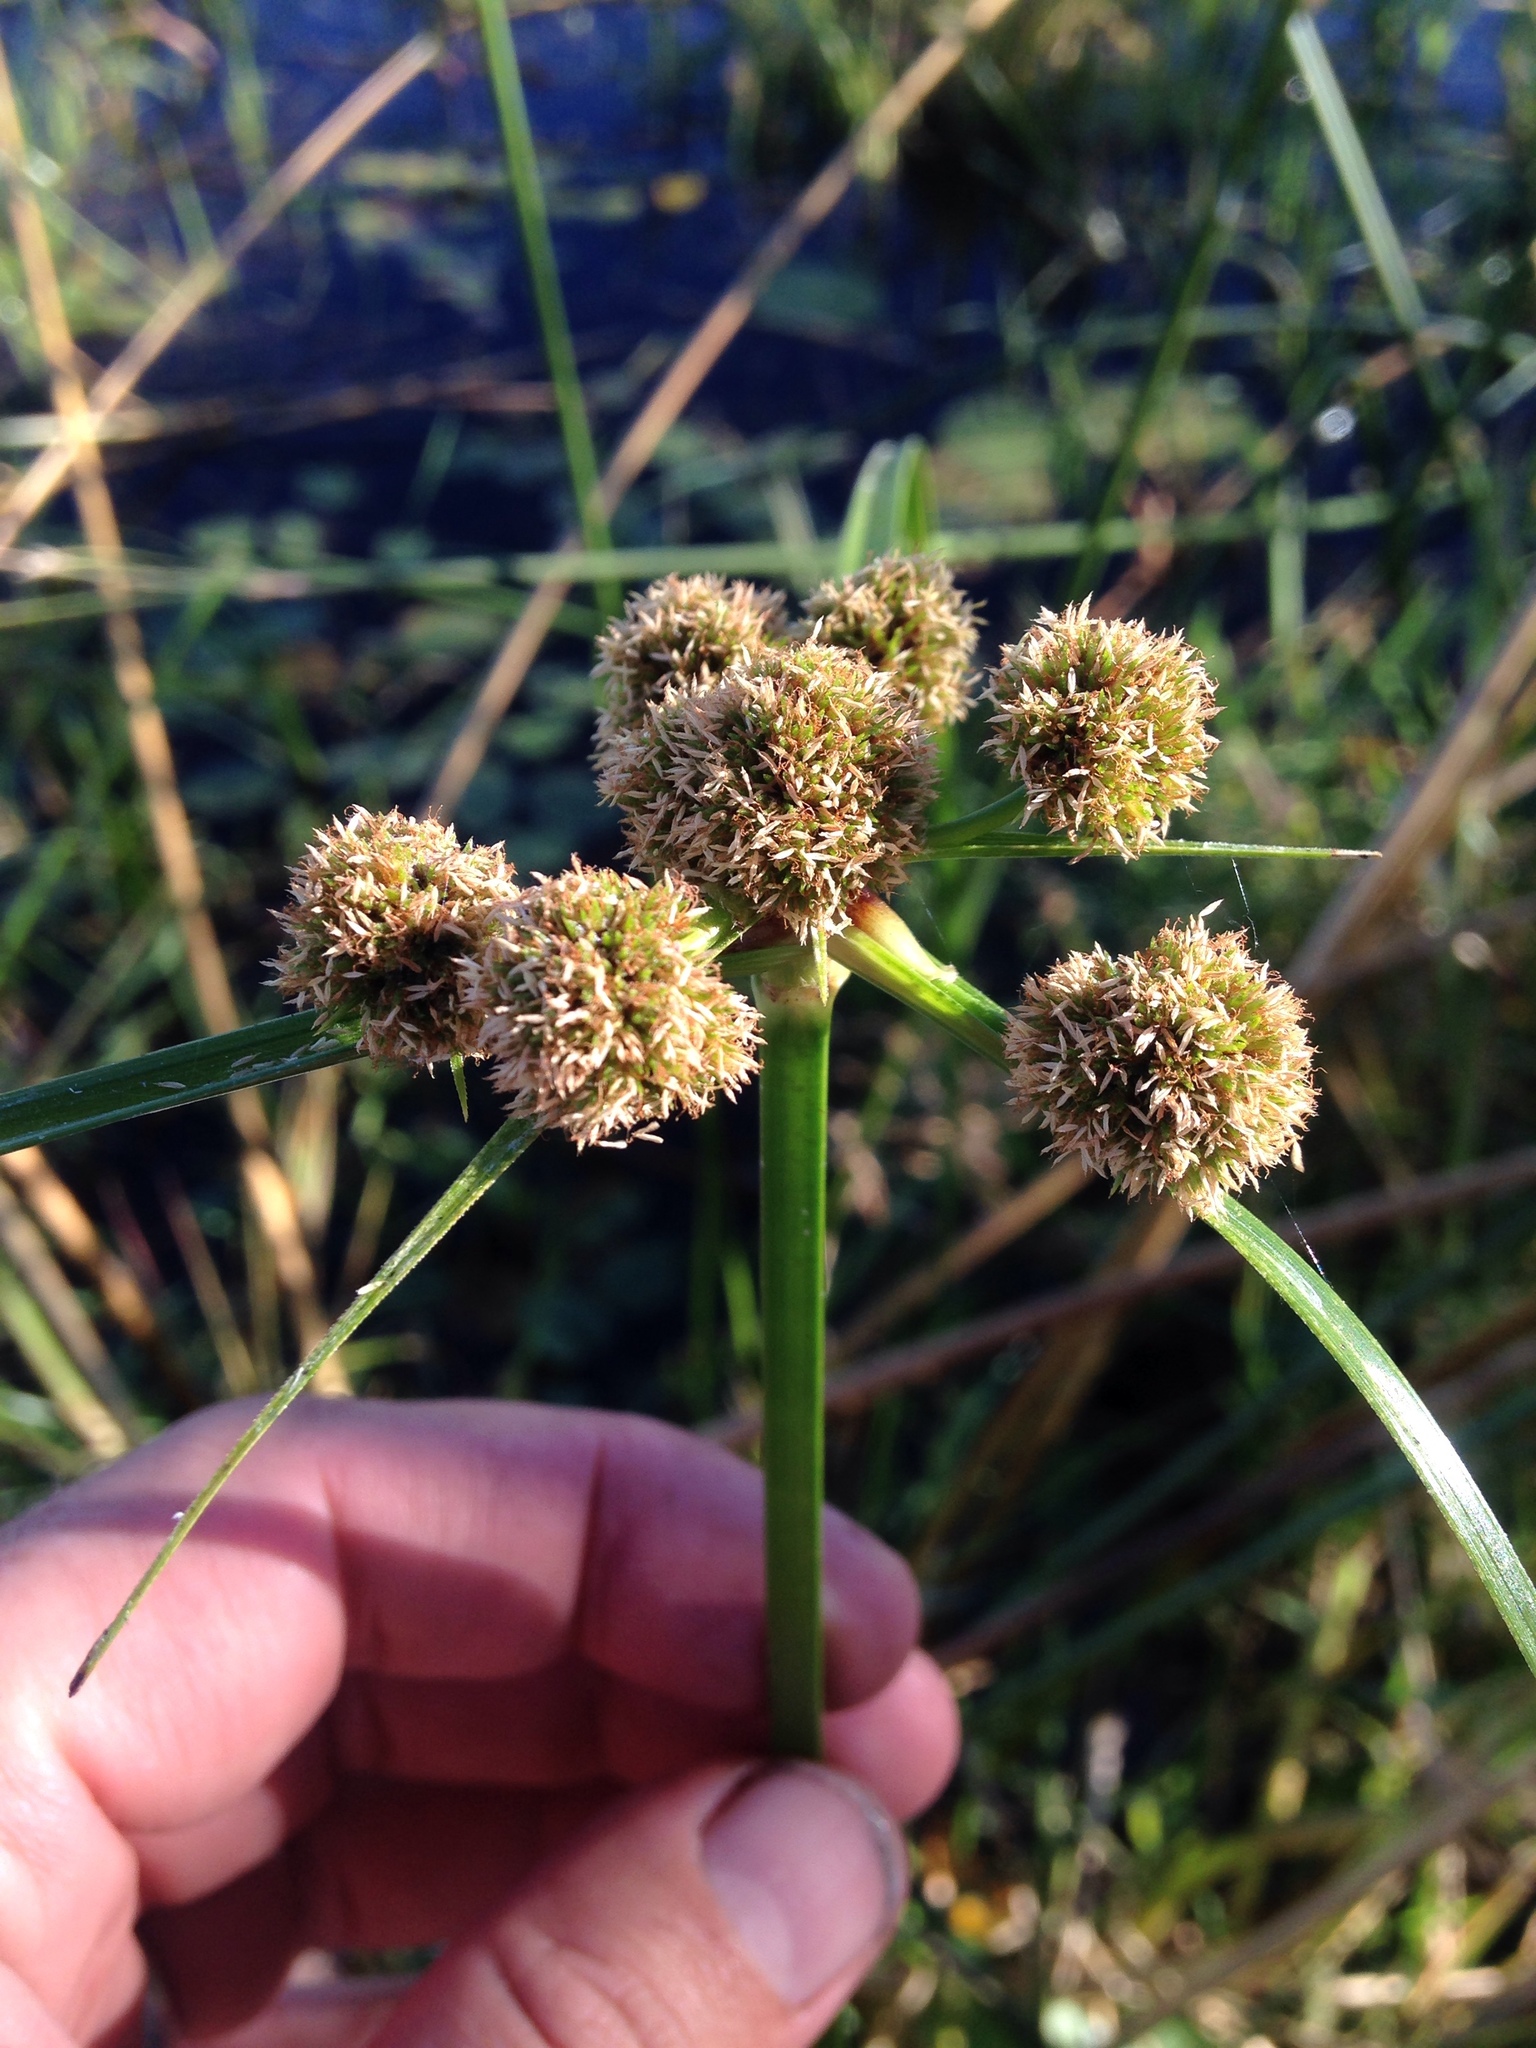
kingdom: Plantae
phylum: Tracheophyta
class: Liliopsida
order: Poales
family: Cyperaceae
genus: Cyperus
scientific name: Cyperus blepharoleptos
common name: Cuban bulrush
